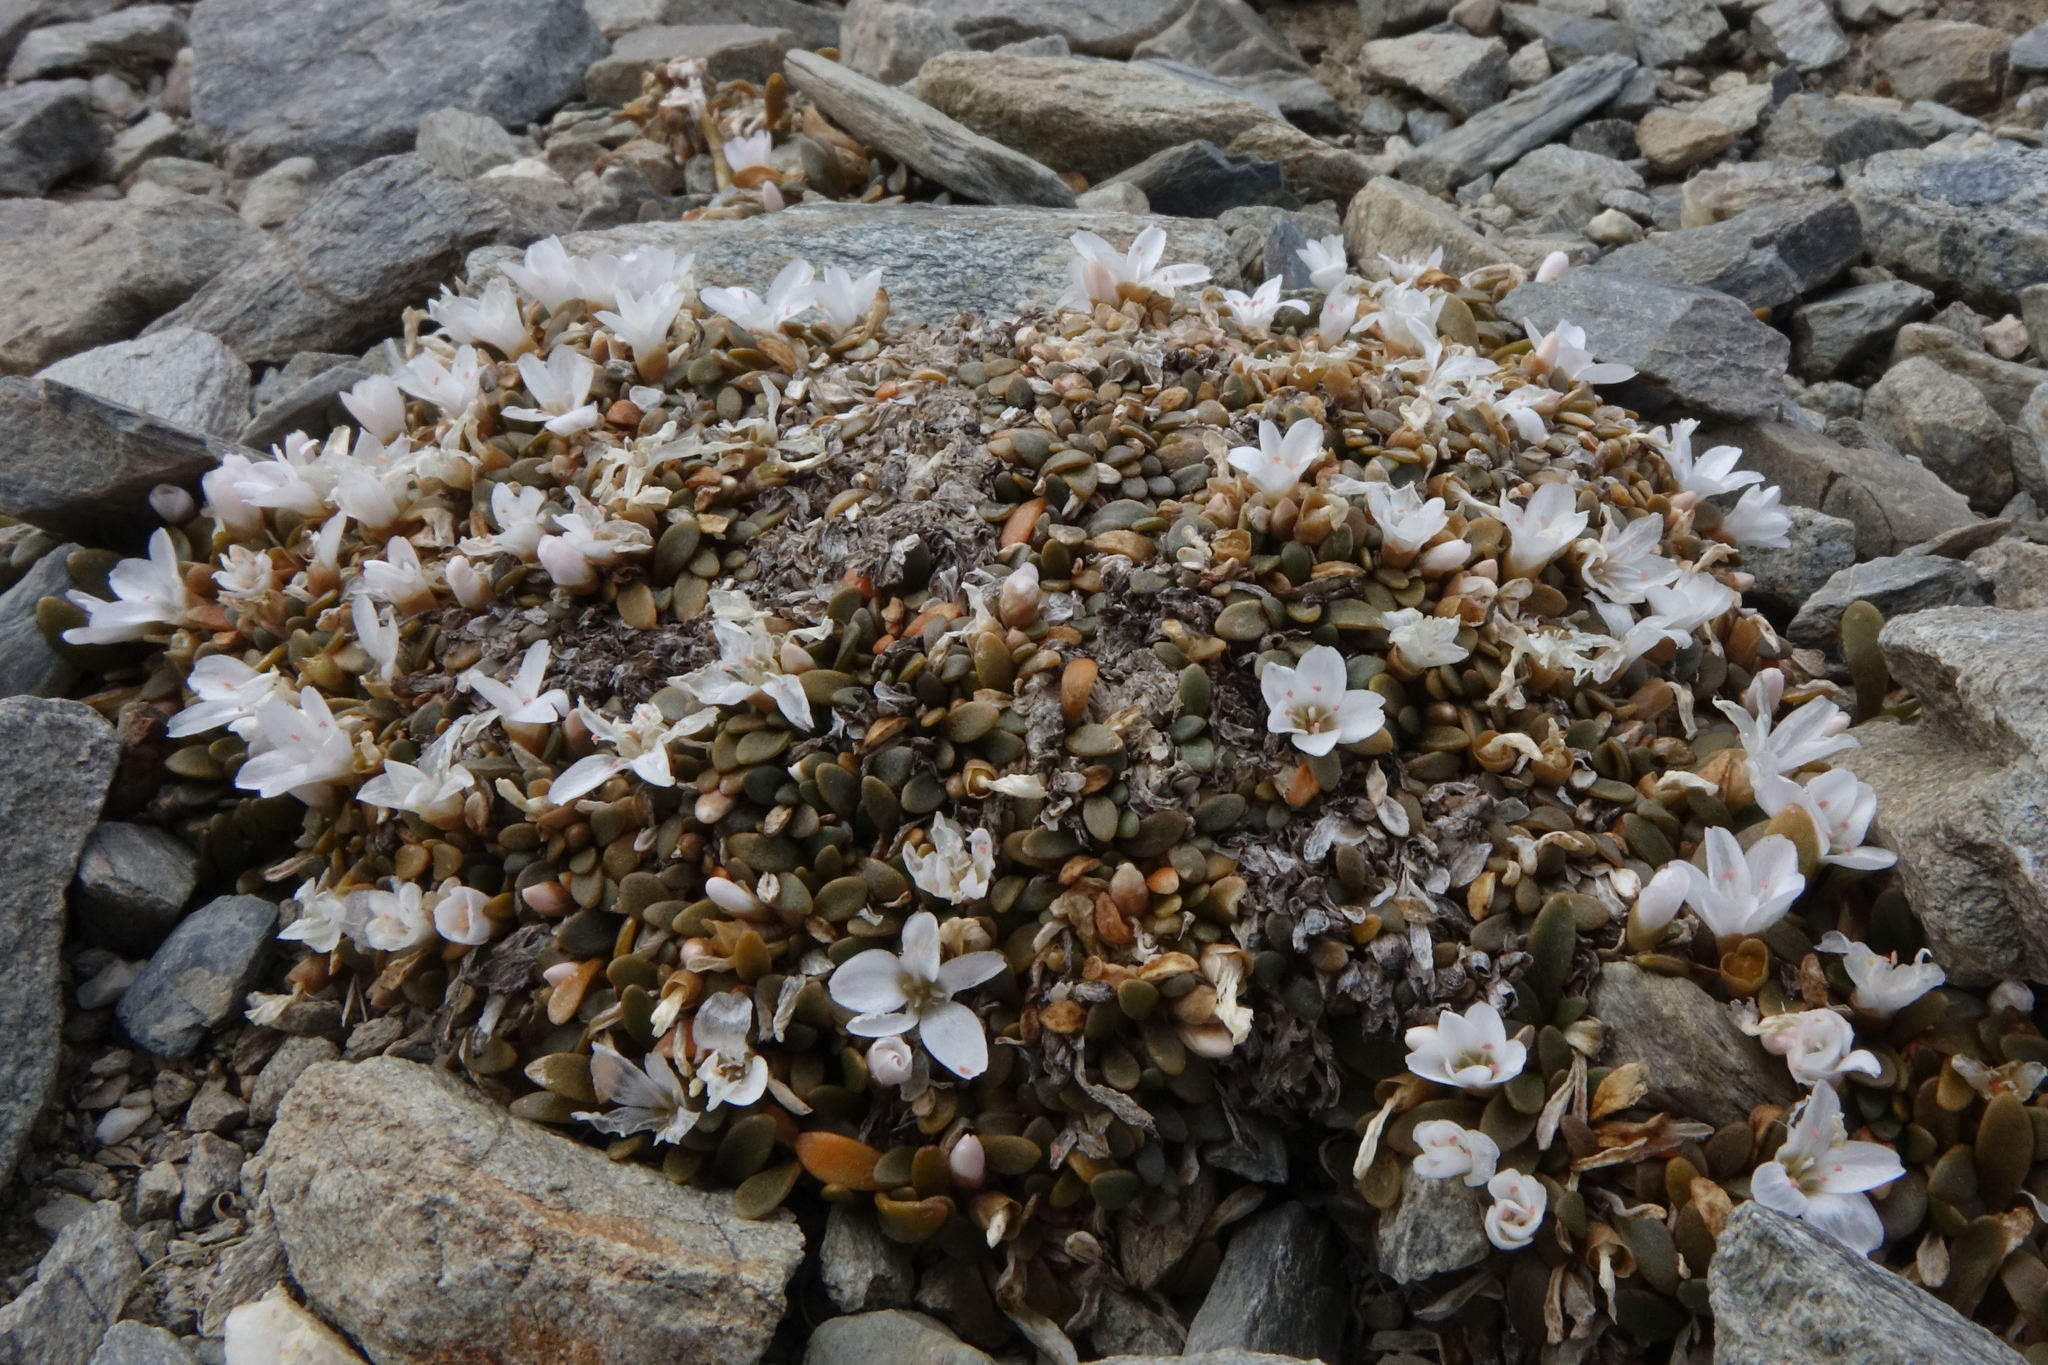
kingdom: Plantae
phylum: Tracheophyta
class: Magnoliopsida
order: Caryophyllales
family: Montiaceae
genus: Montia
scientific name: Montia sessiliflora
